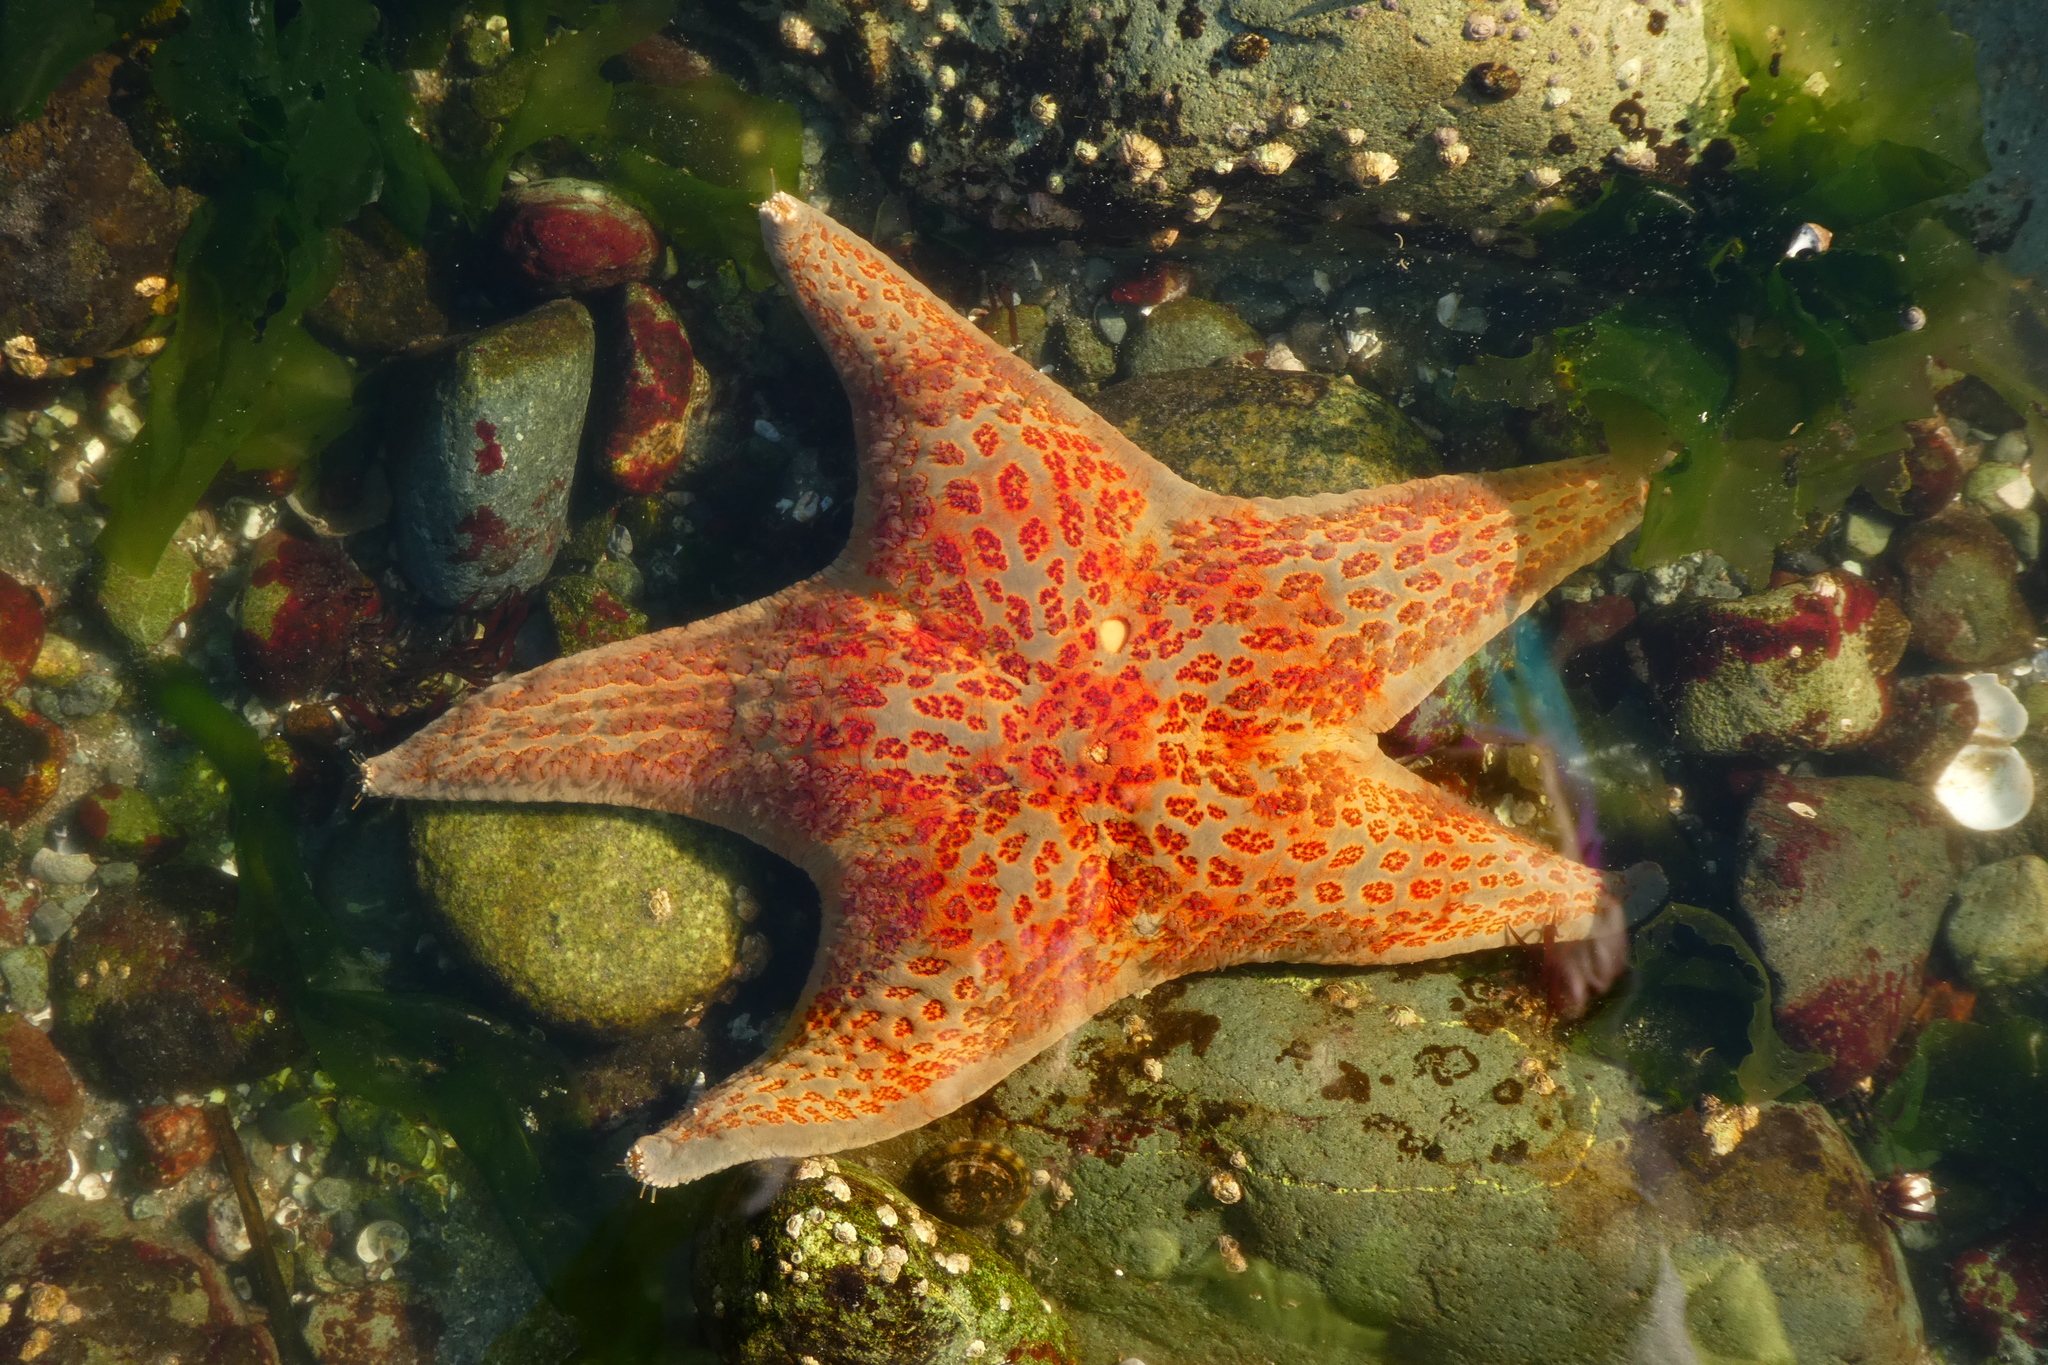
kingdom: Animalia
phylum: Echinodermata
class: Asteroidea
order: Valvatida
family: Asteropseidae
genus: Dermasterias
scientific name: Dermasterias imbricata
